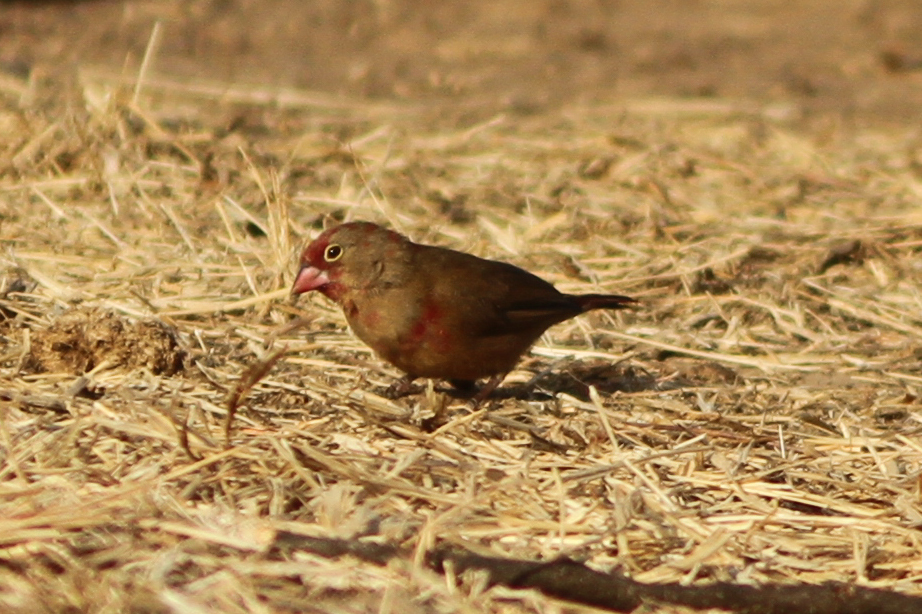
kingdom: Animalia
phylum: Chordata
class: Aves
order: Passeriformes
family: Estrildidae
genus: Lagonosticta
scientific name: Lagonosticta senegala
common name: Red-billed firefinch
